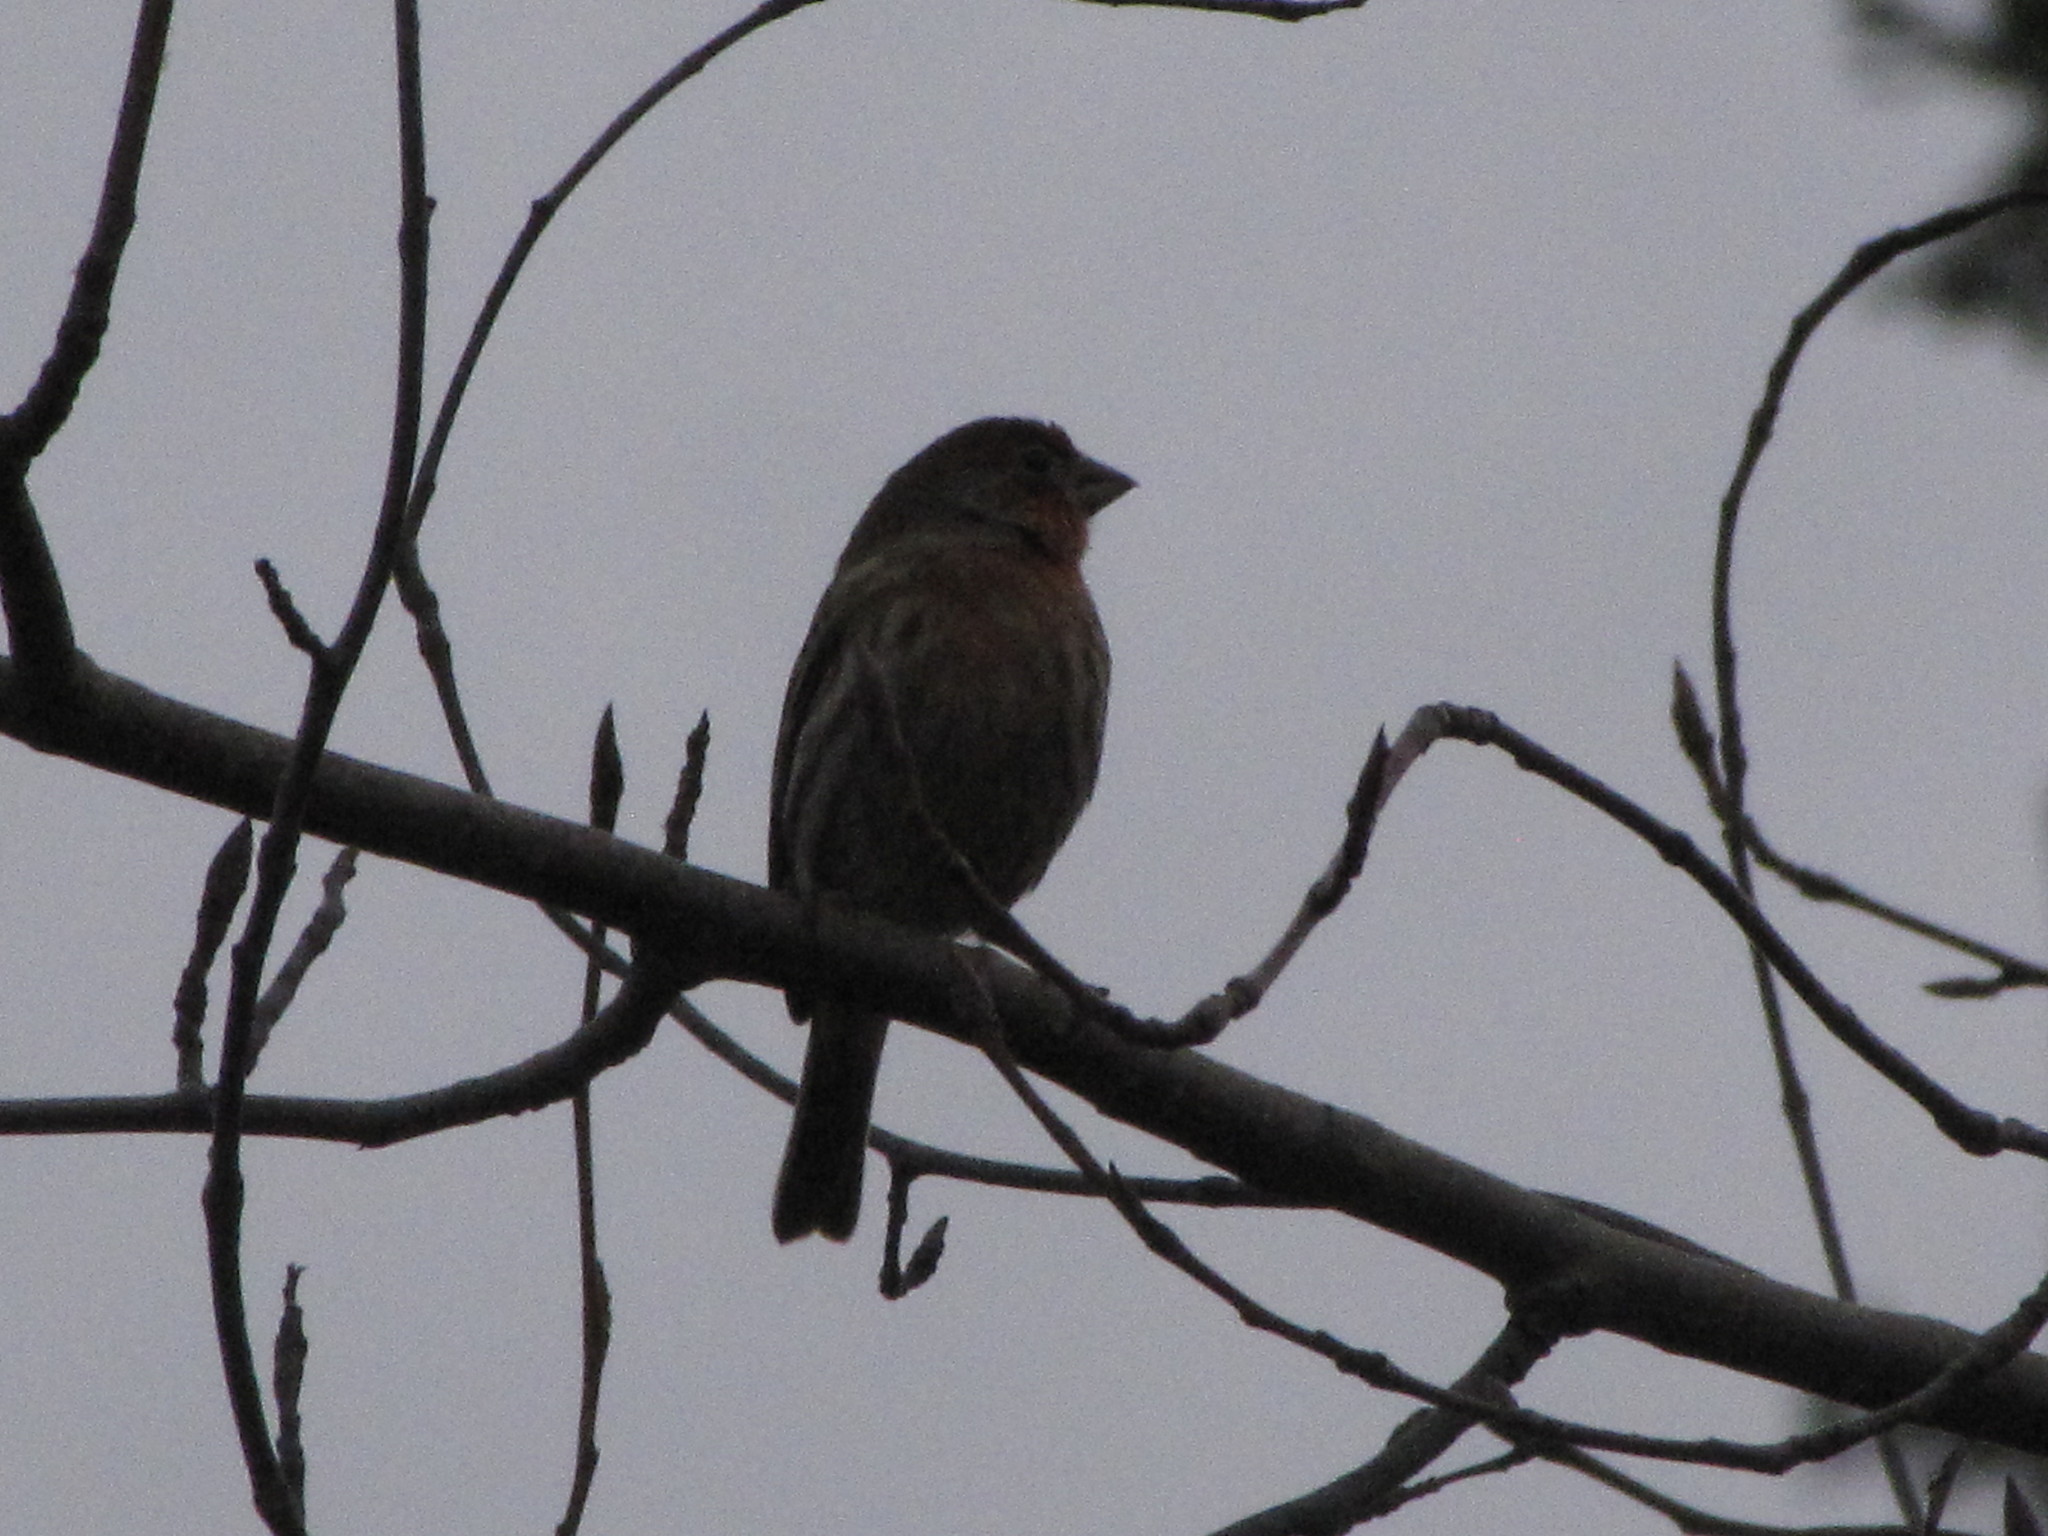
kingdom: Animalia
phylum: Chordata
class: Aves
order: Passeriformes
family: Fringillidae
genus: Haemorhous
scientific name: Haemorhous mexicanus
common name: House finch
